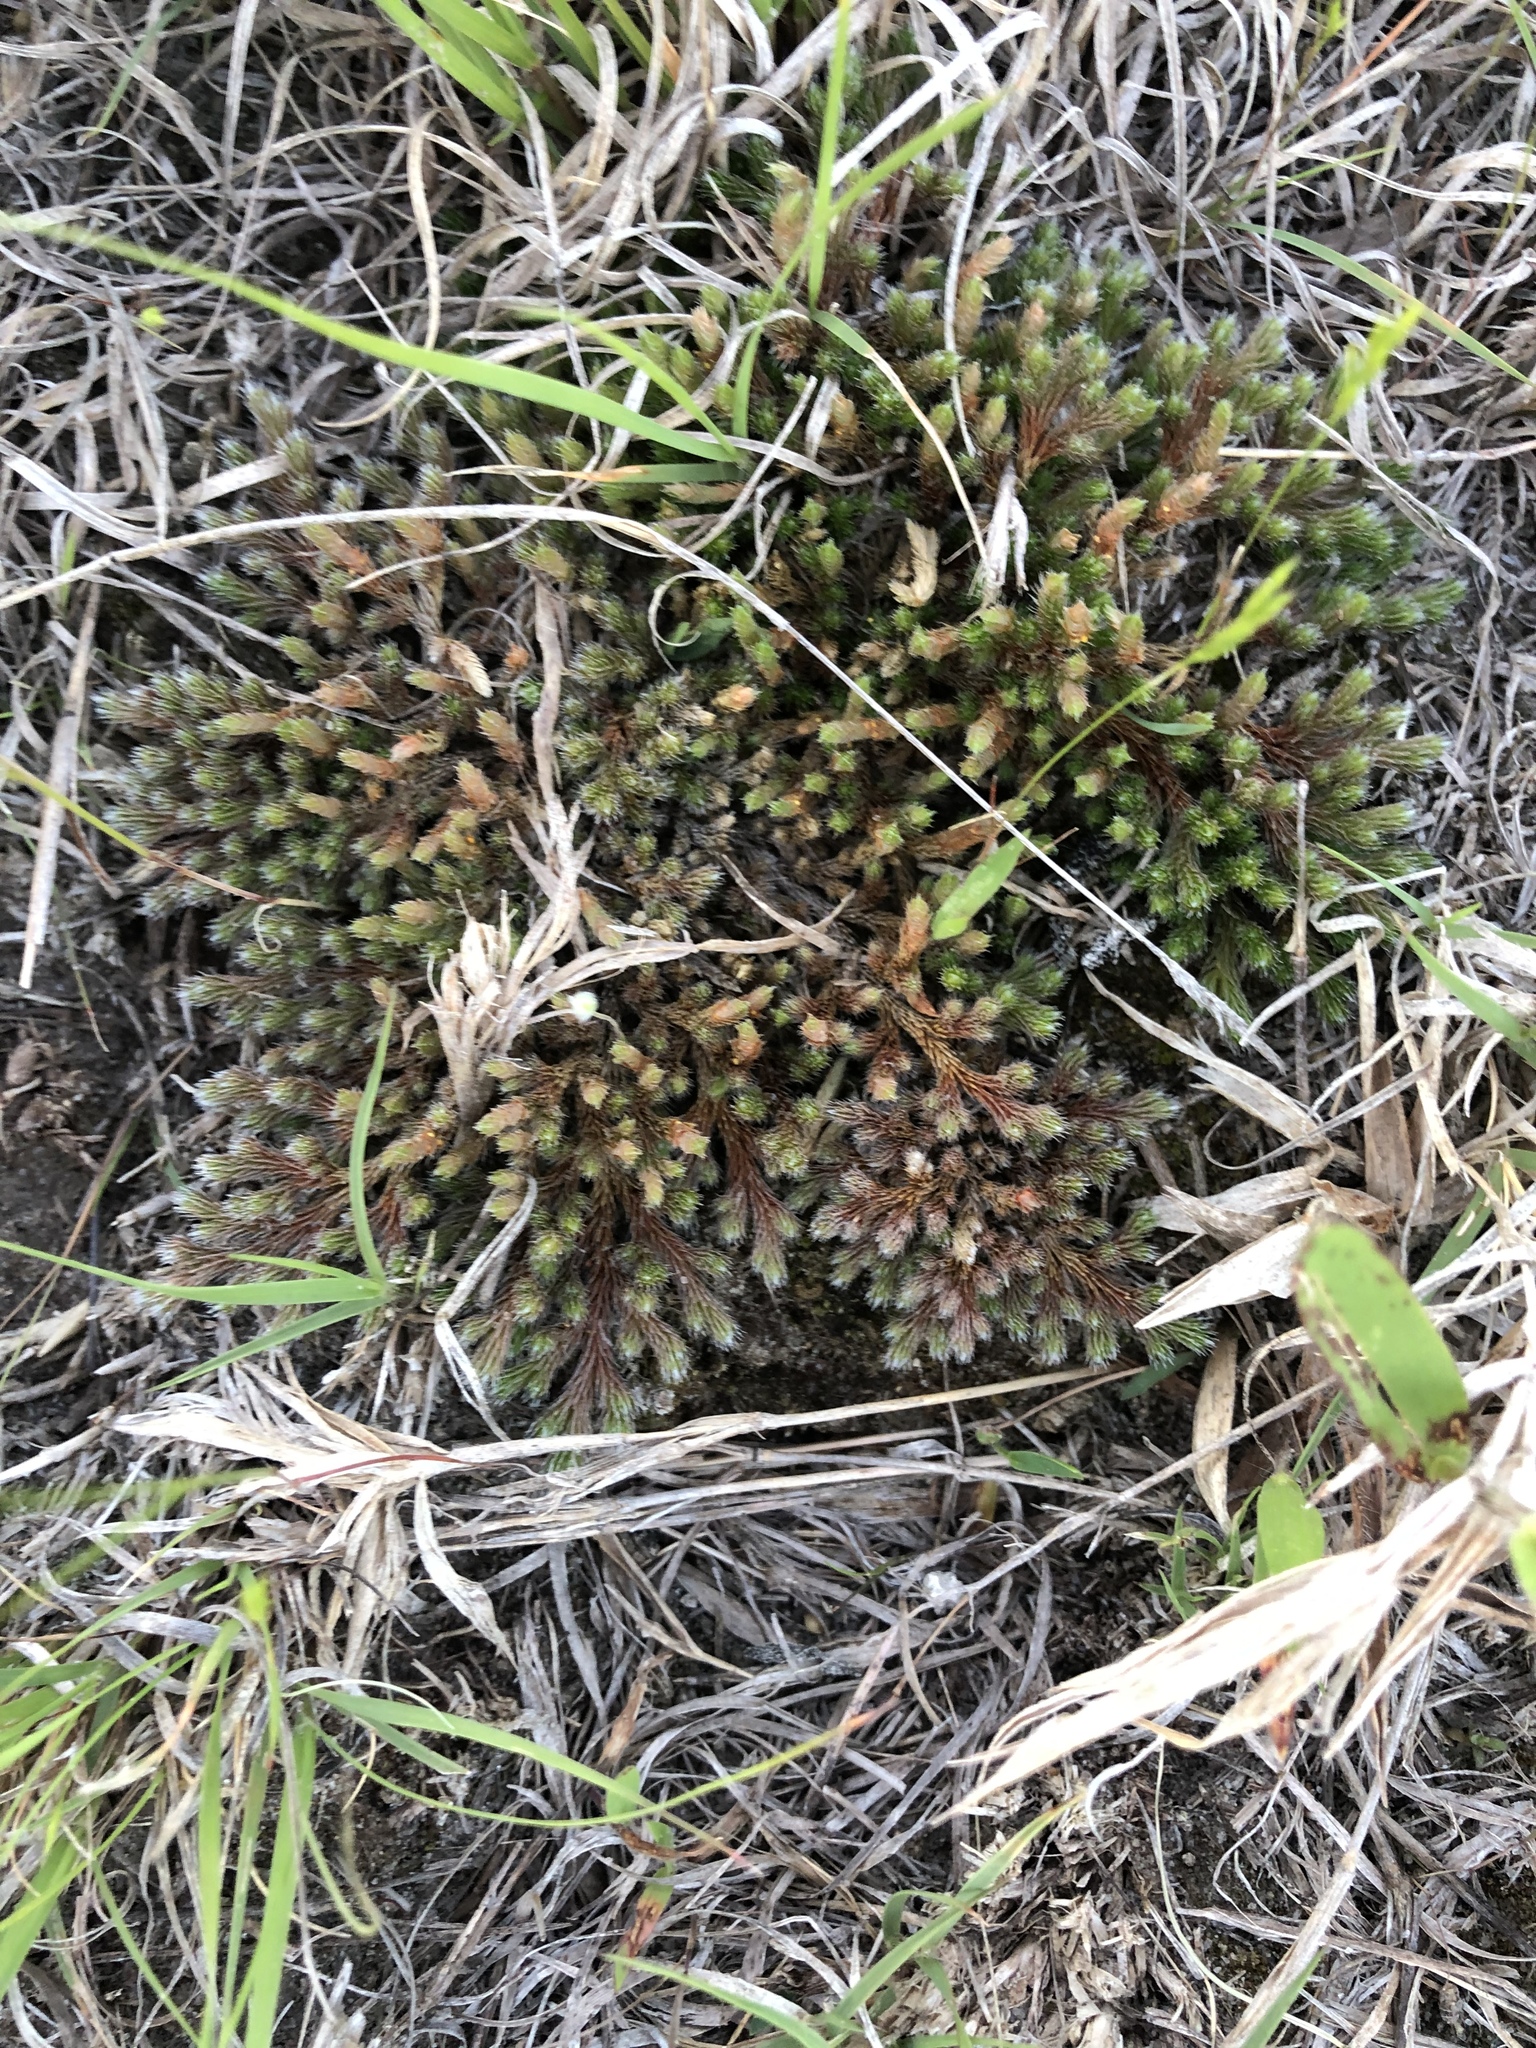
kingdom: Plantae
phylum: Tracheophyta
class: Lycopodiopsida
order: Selaginellales
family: Selaginellaceae
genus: Selaginella
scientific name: Selaginella rupestris
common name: Dwarf spikemoss
